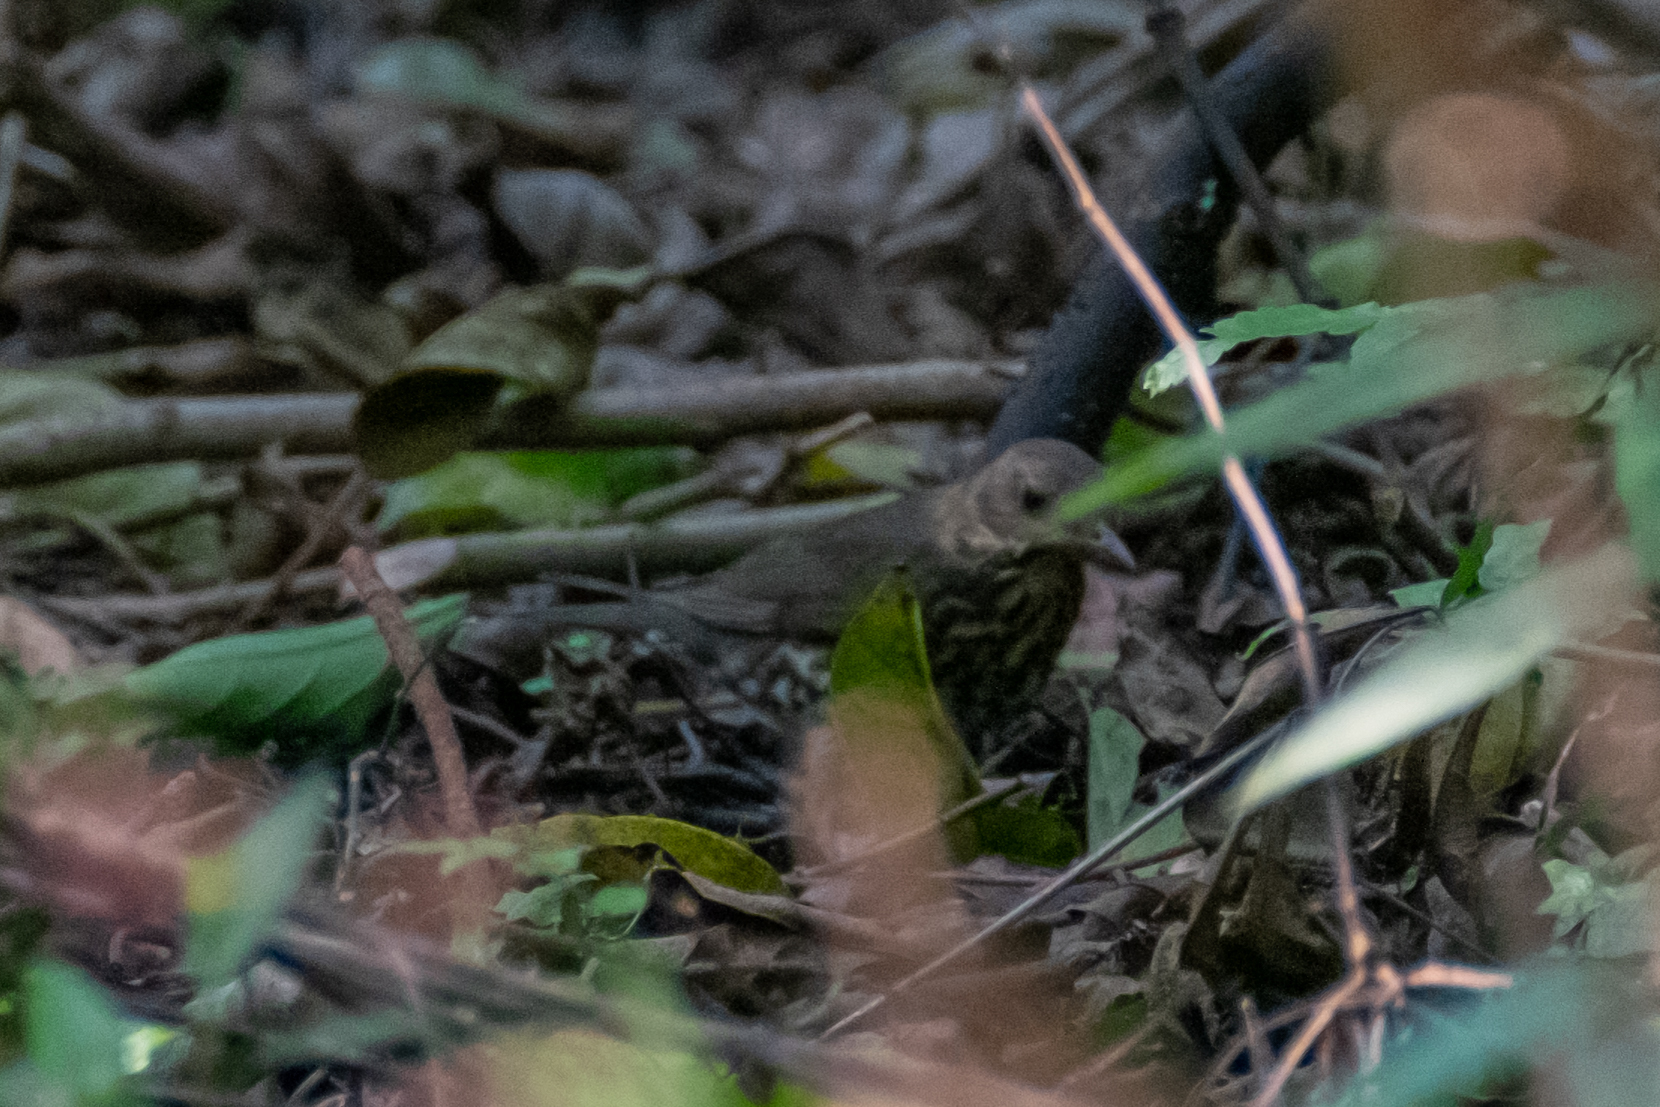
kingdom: Animalia
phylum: Chordata
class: Aves
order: Passeriformes
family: Turdidae
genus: Turdus
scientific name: Turdus cardis
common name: Japanese thrush
